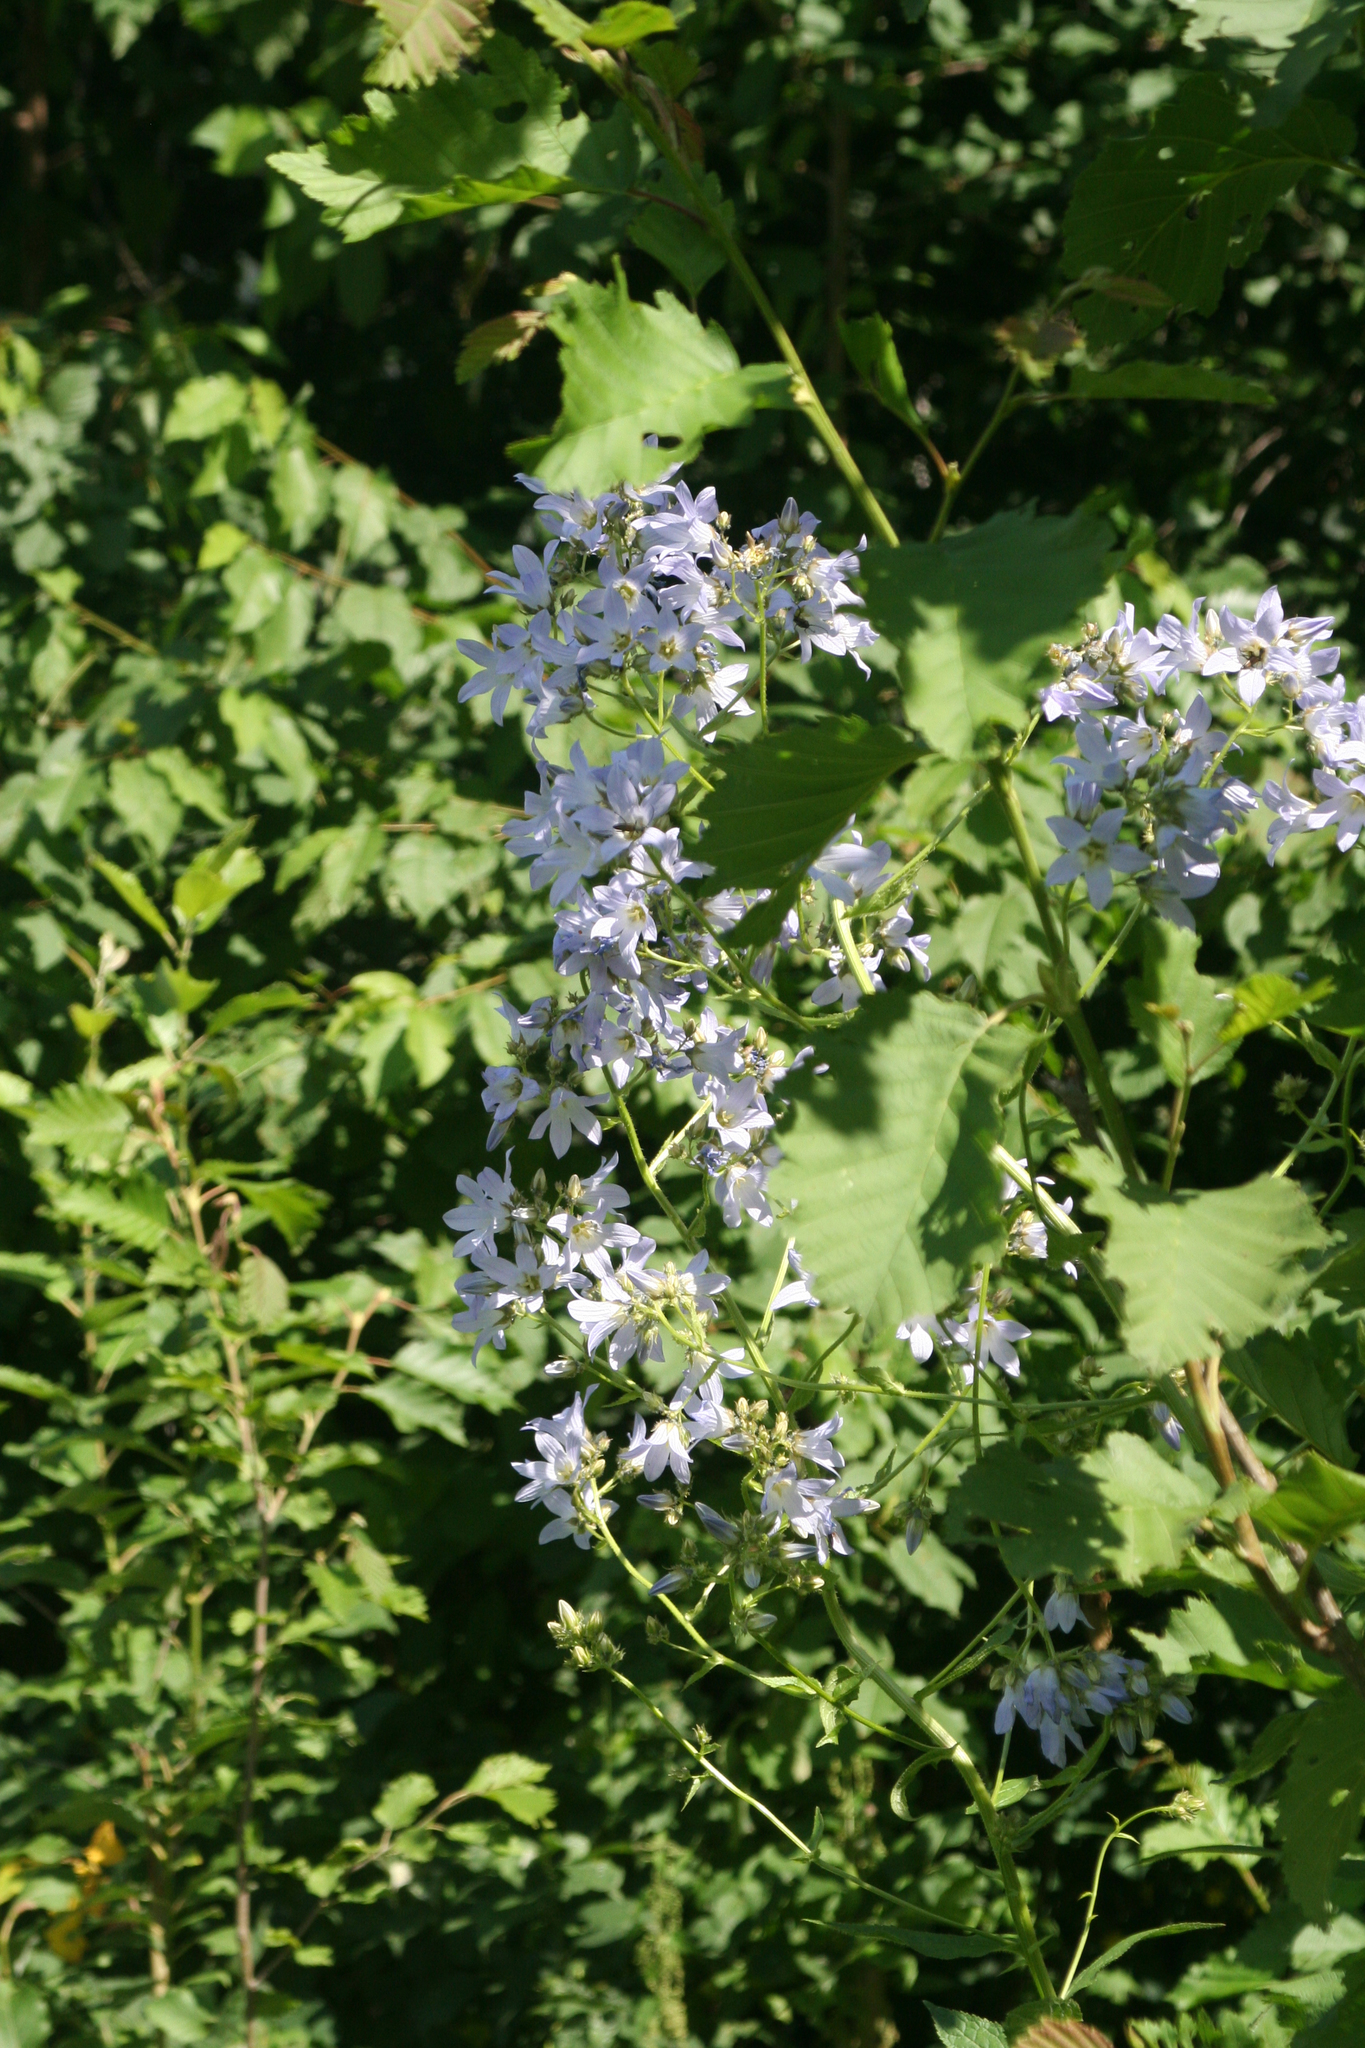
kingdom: Plantae
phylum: Tracheophyta
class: Magnoliopsida
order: Asterales
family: Campanulaceae
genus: Campanula
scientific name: Campanula lactiflora
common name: Milky bellflower
